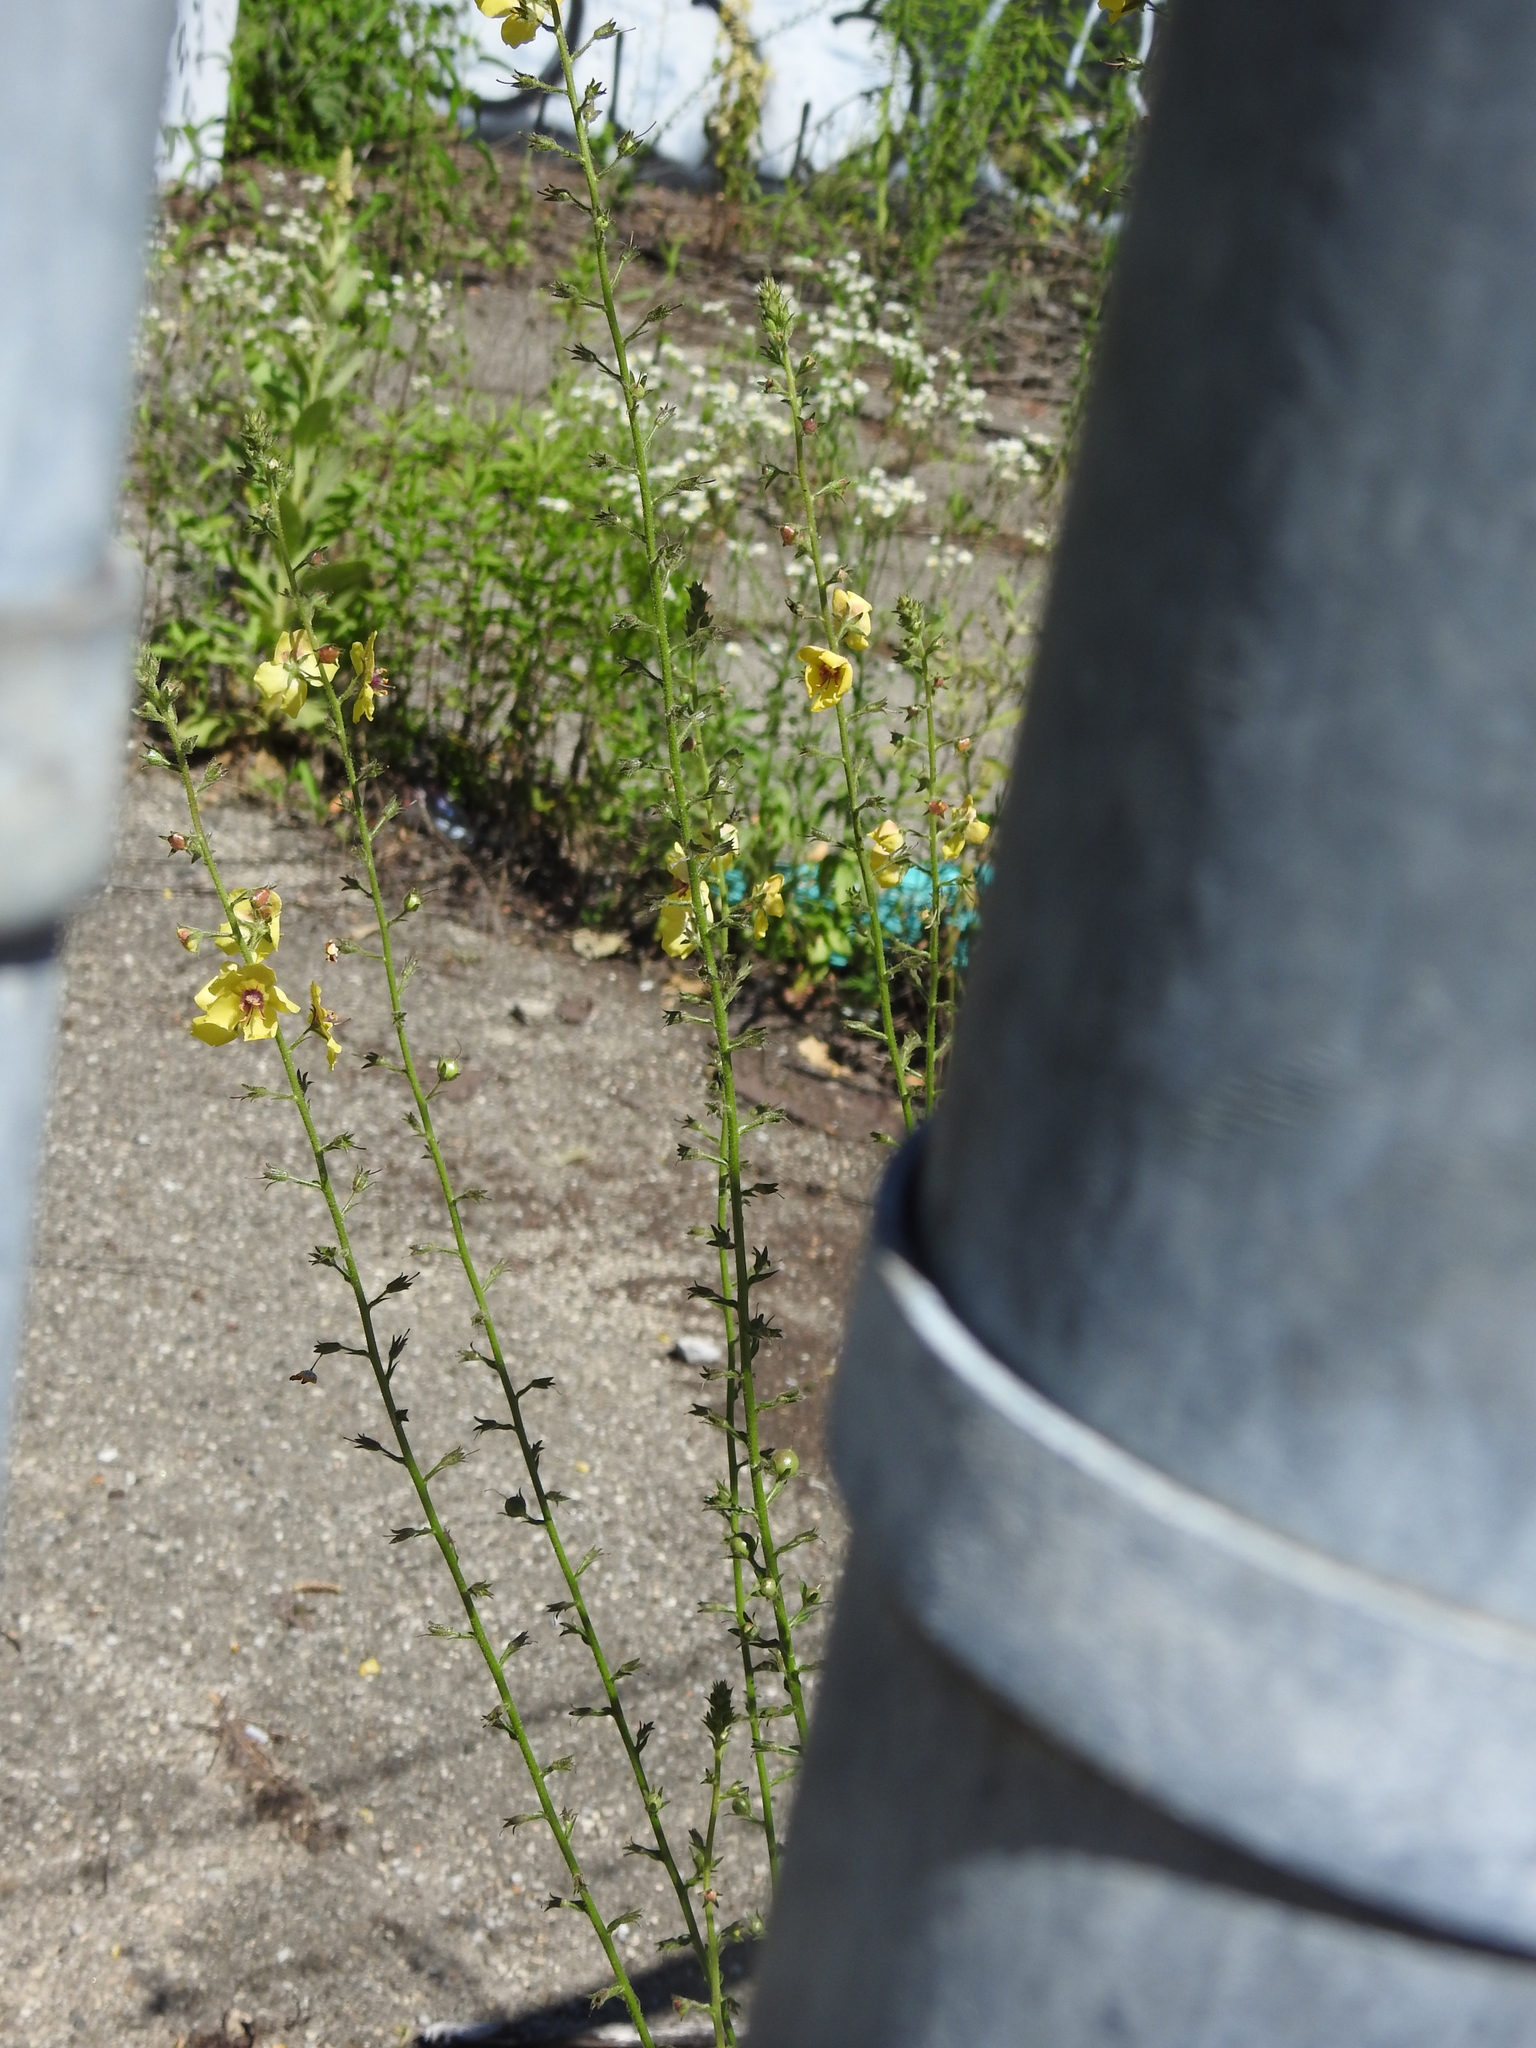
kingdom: Plantae
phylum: Tracheophyta
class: Magnoliopsida
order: Lamiales
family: Scrophulariaceae
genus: Verbascum
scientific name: Verbascum blattaria
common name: Moth mullein
